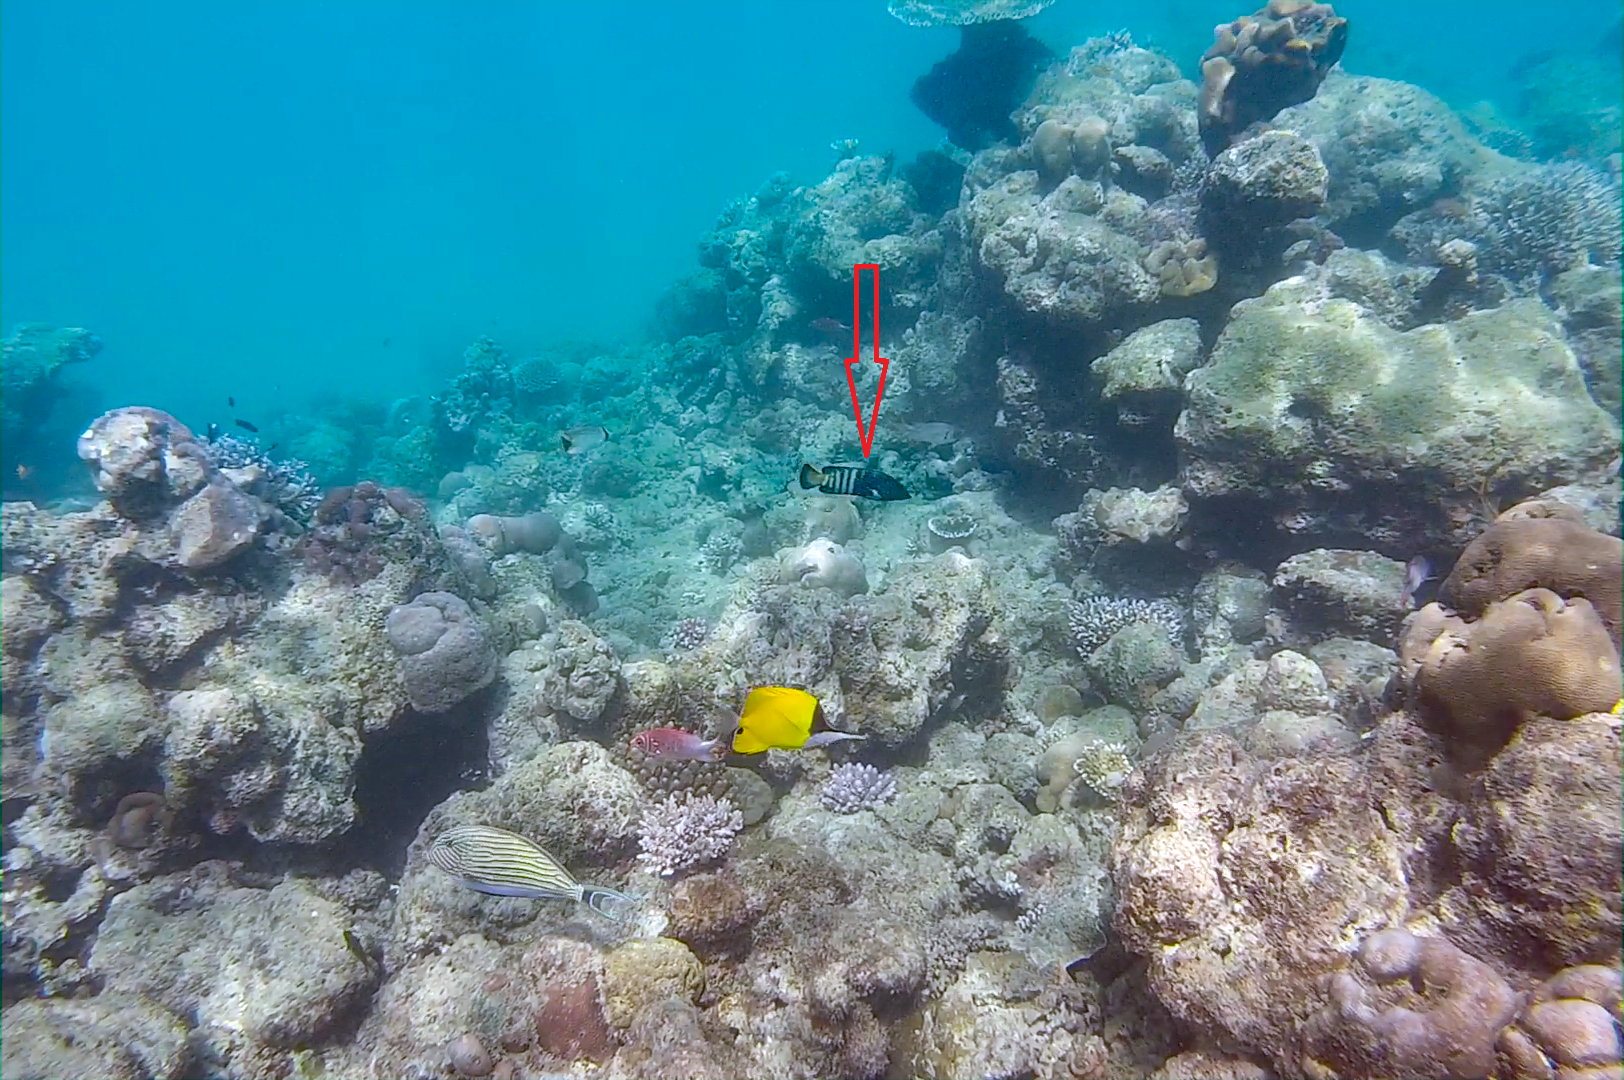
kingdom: Animalia
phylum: Chordata
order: Perciformes
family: Serranidae
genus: Cephalopholis
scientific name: Cephalopholis argus
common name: Peacock grouper
